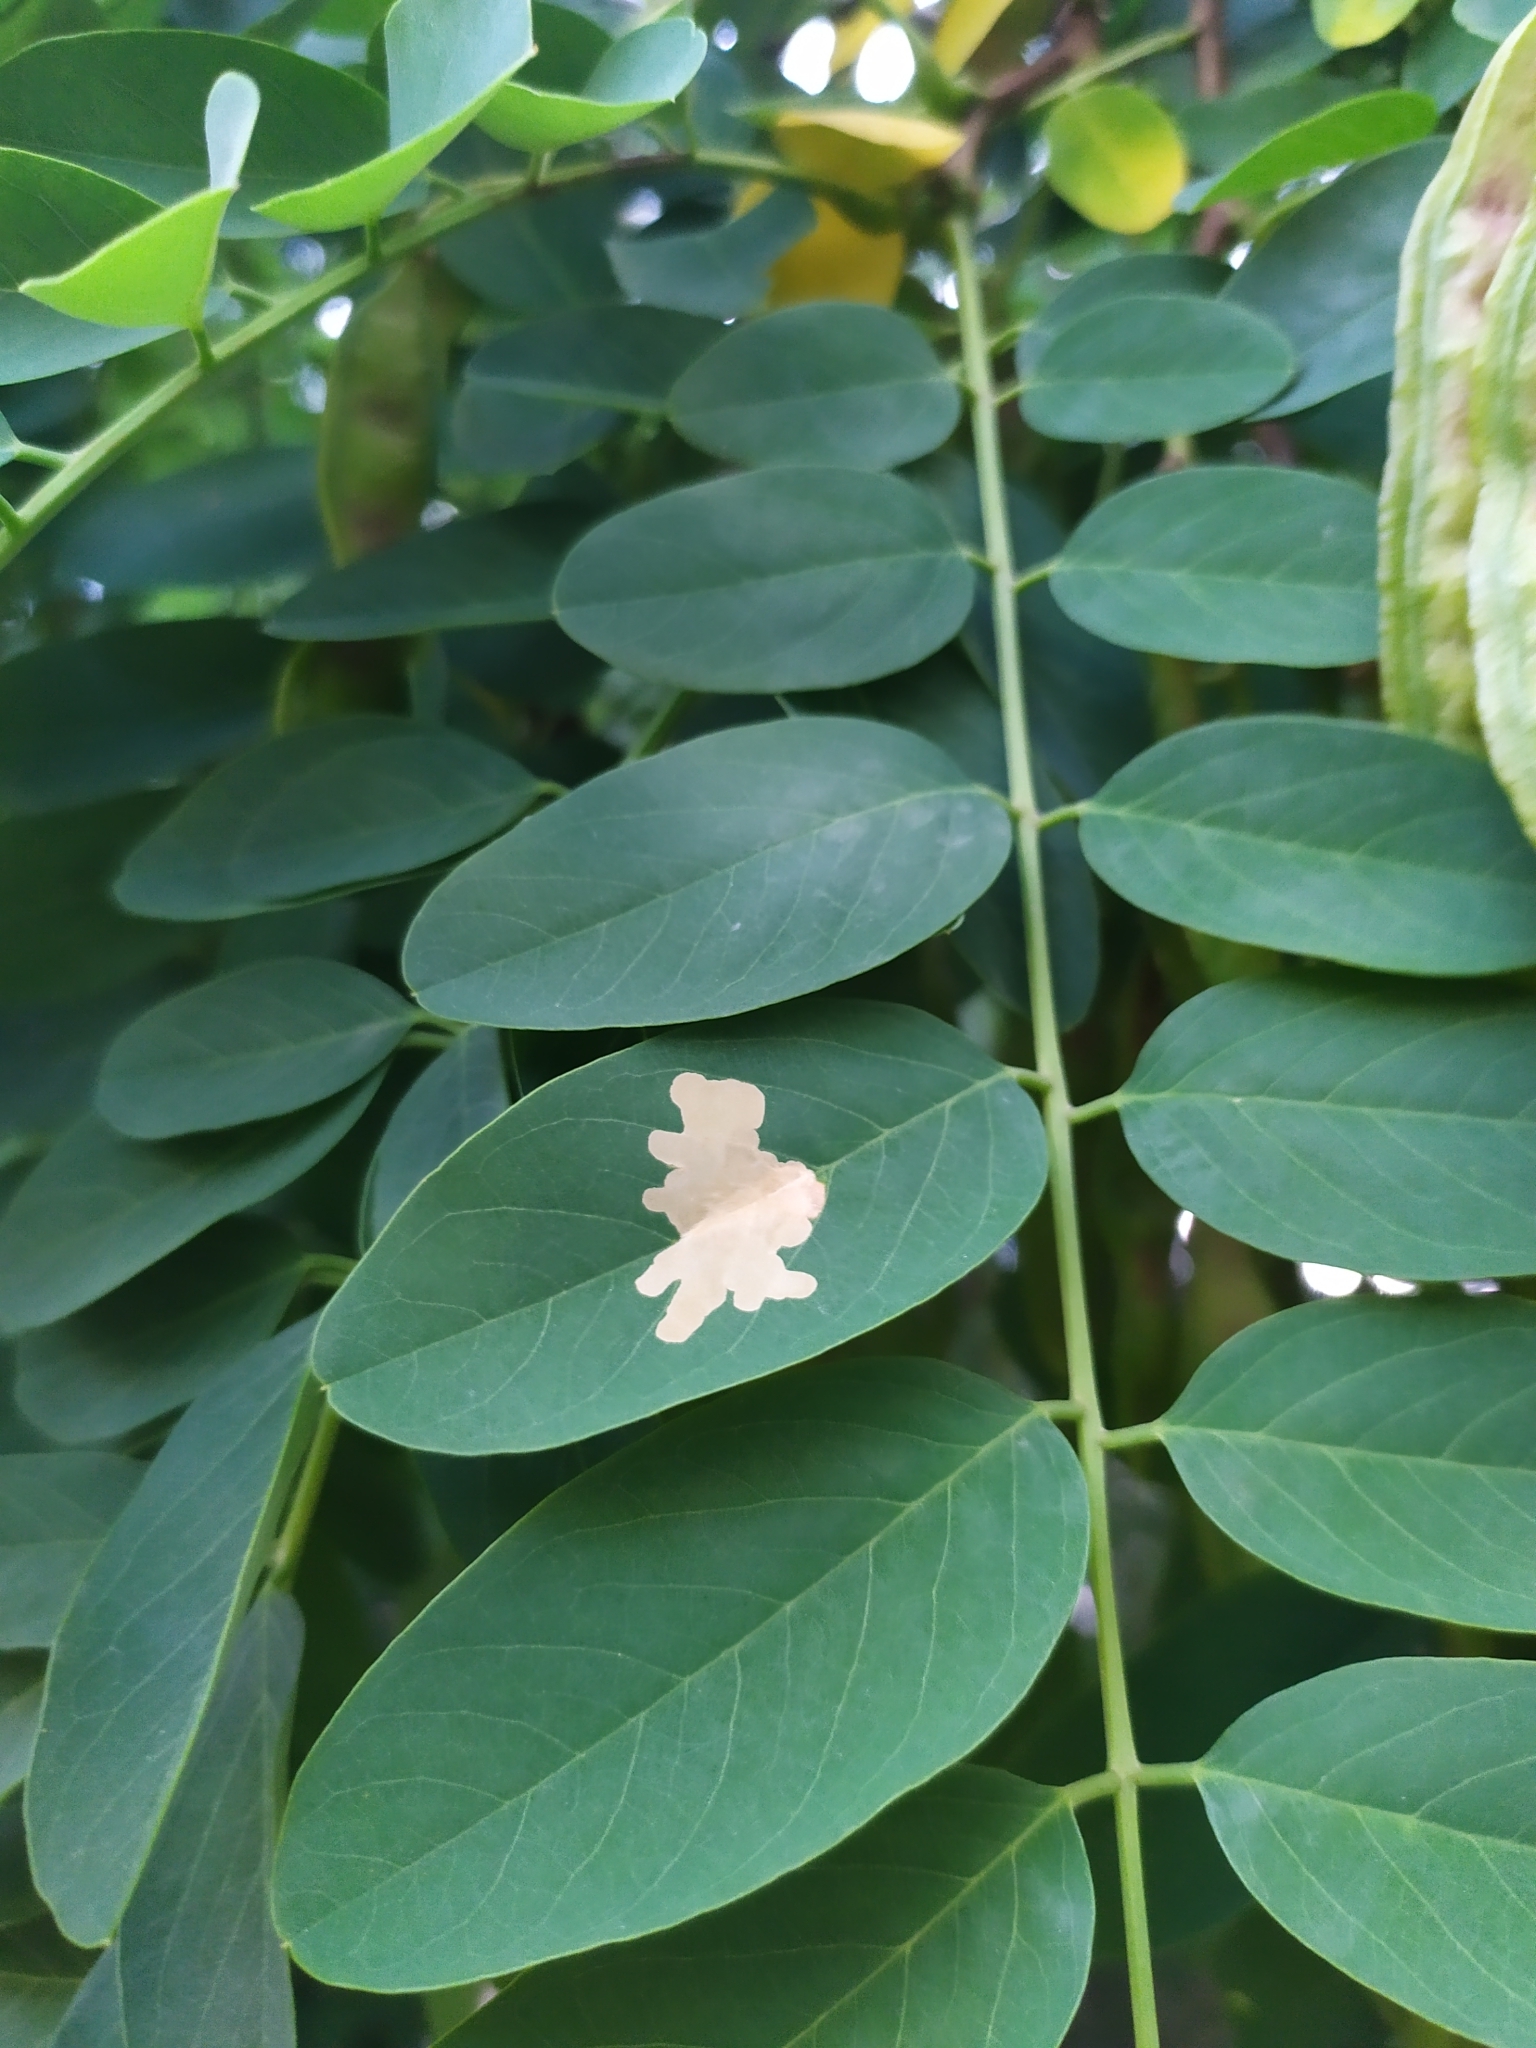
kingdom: Animalia
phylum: Arthropoda
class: Insecta
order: Lepidoptera
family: Gracillariidae
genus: Parectopa
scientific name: Parectopa robiniella
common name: Locust digitate leafminer
